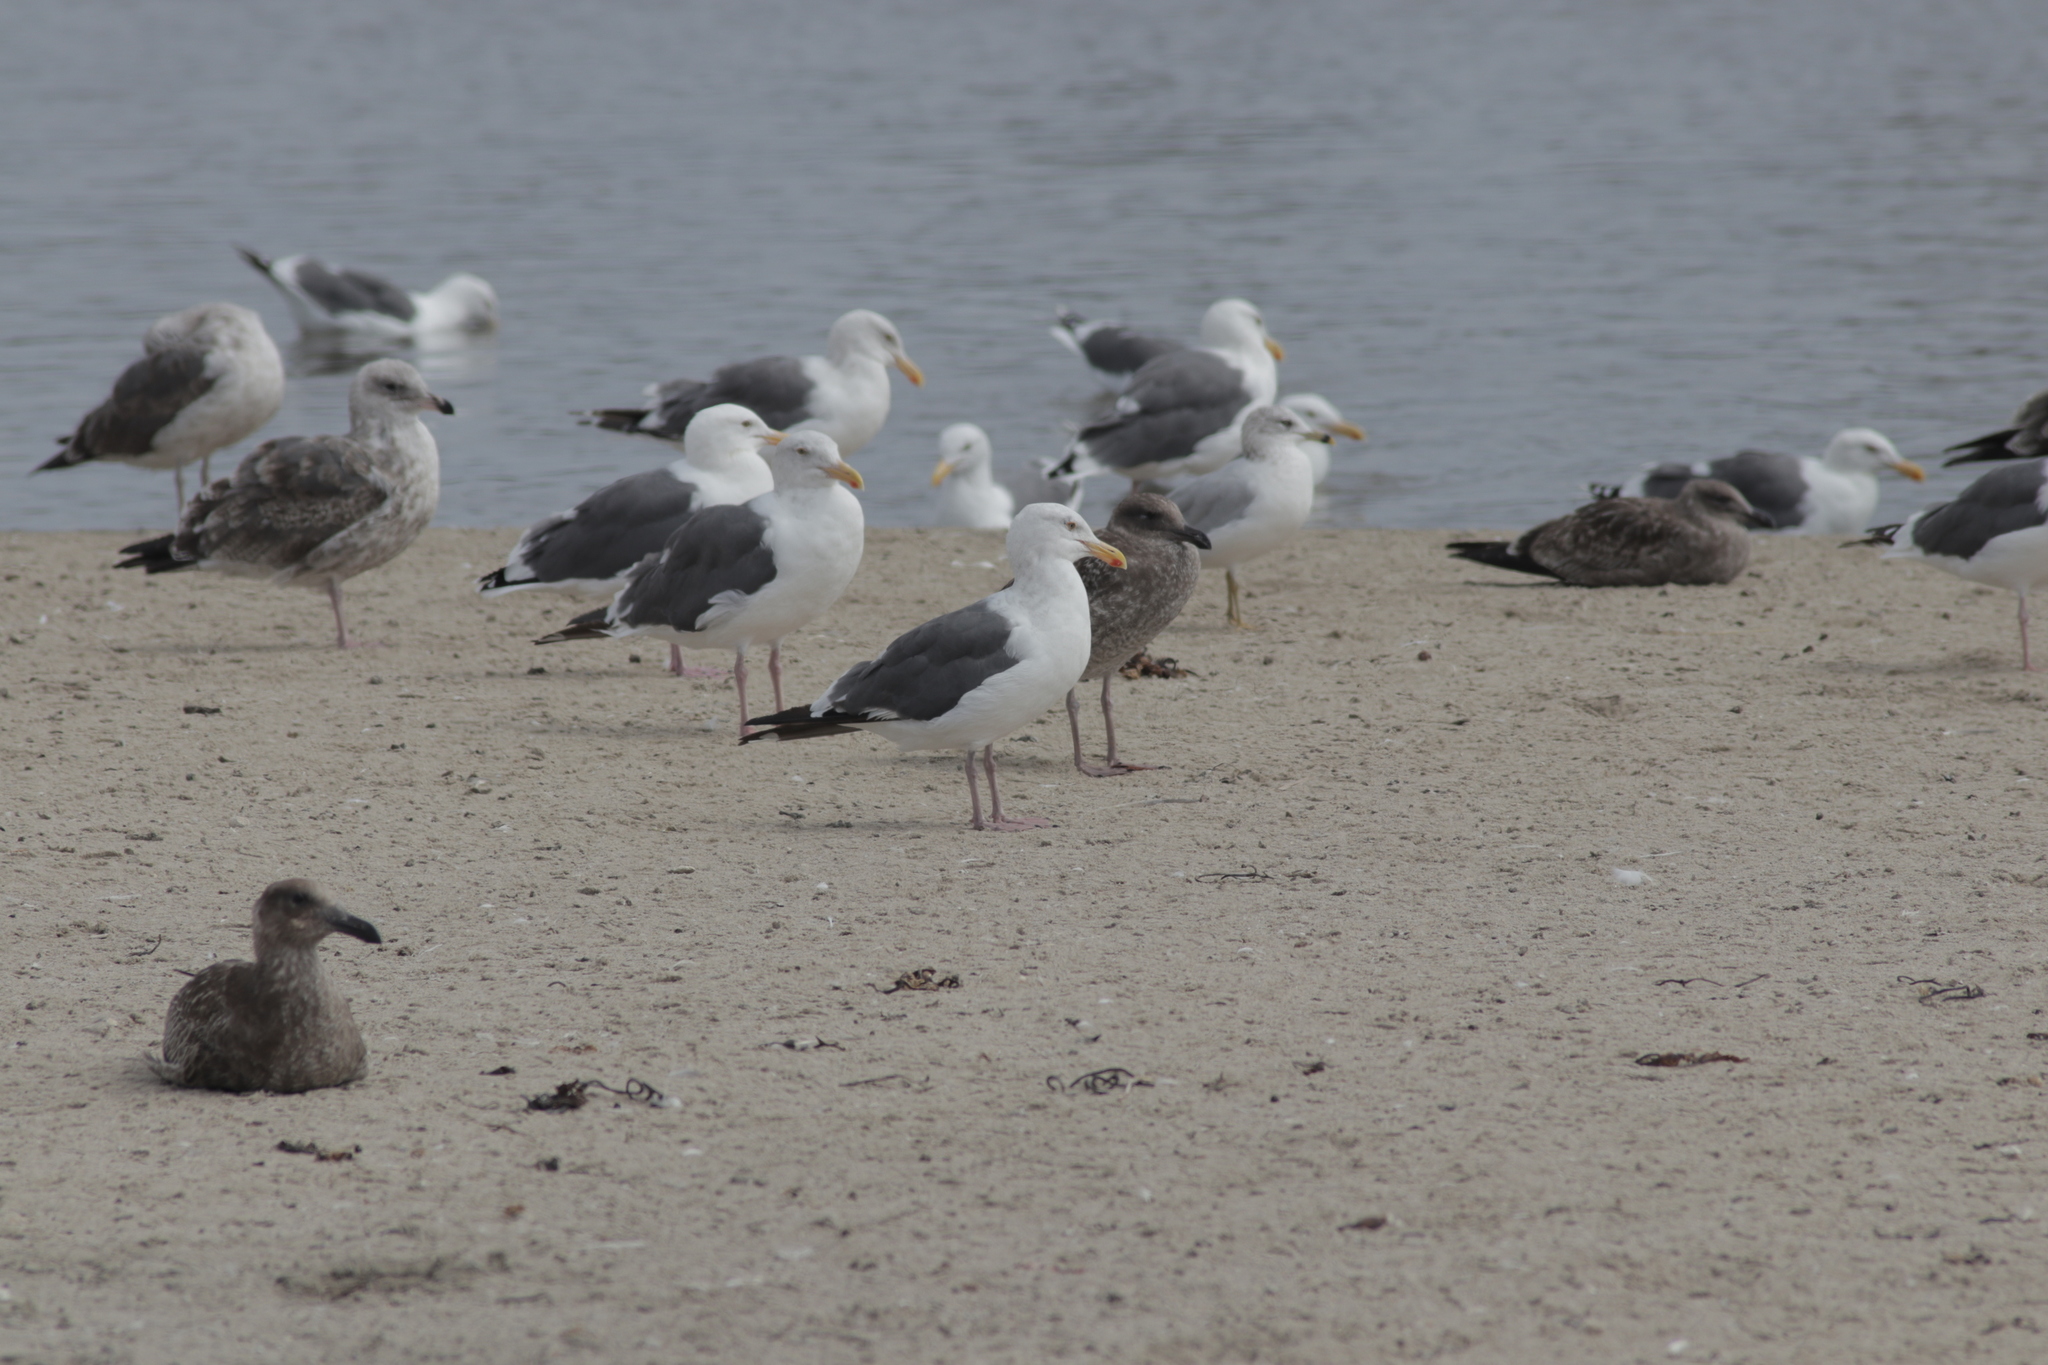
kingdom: Animalia
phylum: Chordata
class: Aves
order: Charadriiformes
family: Laridae
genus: Larus
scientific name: Larus occidentalis
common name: Western gull
